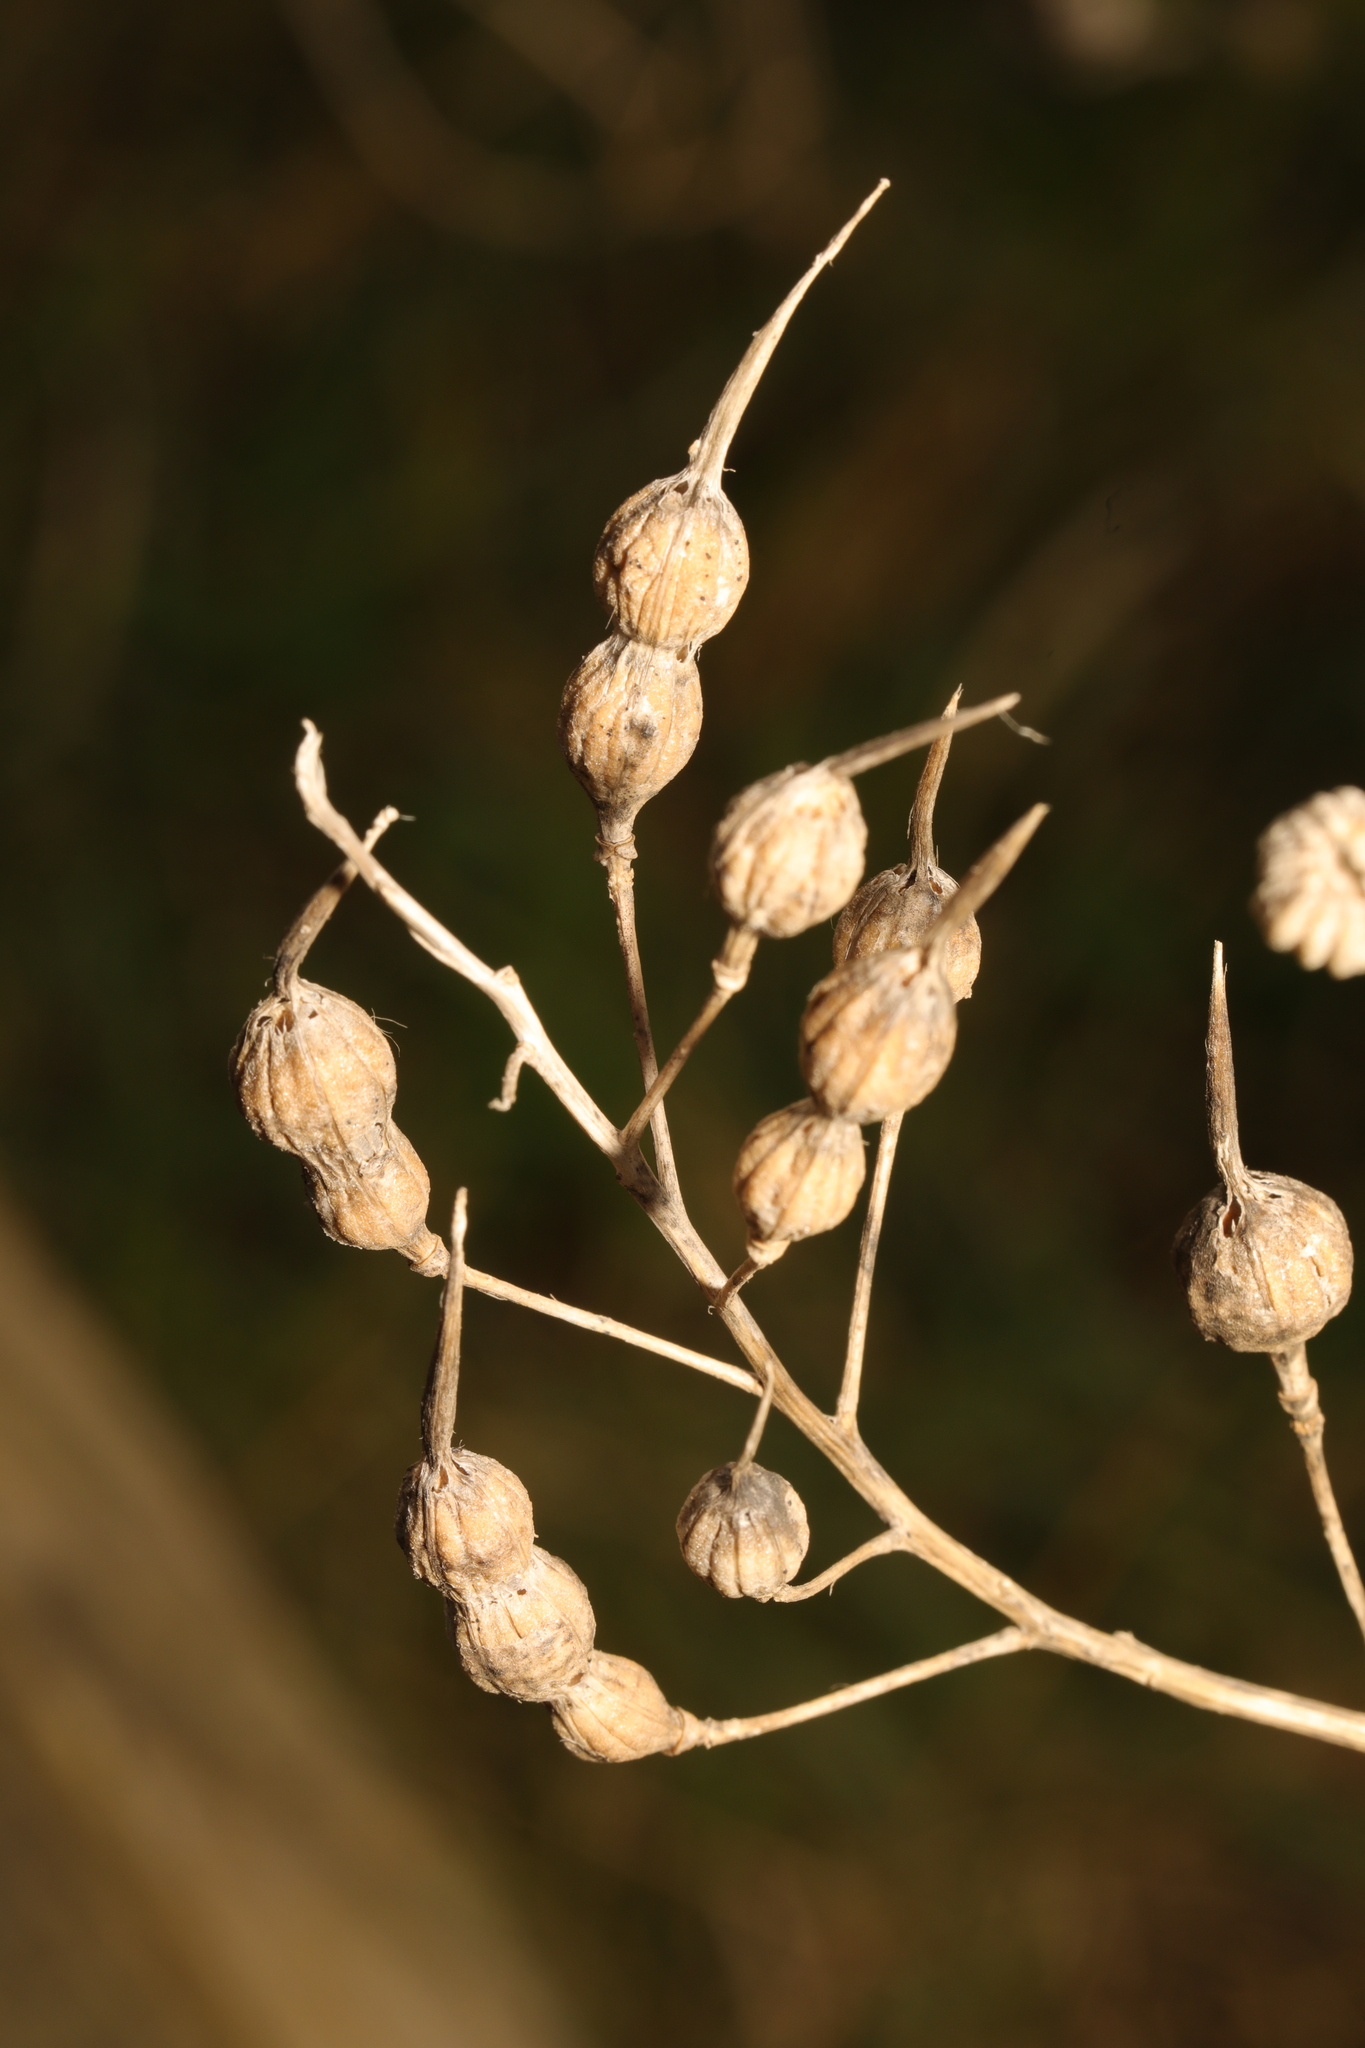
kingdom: Plantae
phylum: Tracheophyta
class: Magnoliopsida
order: Brassicales
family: Brassicaceae
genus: Raphanus
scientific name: Raphanus raphanistrum
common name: Wild radish
